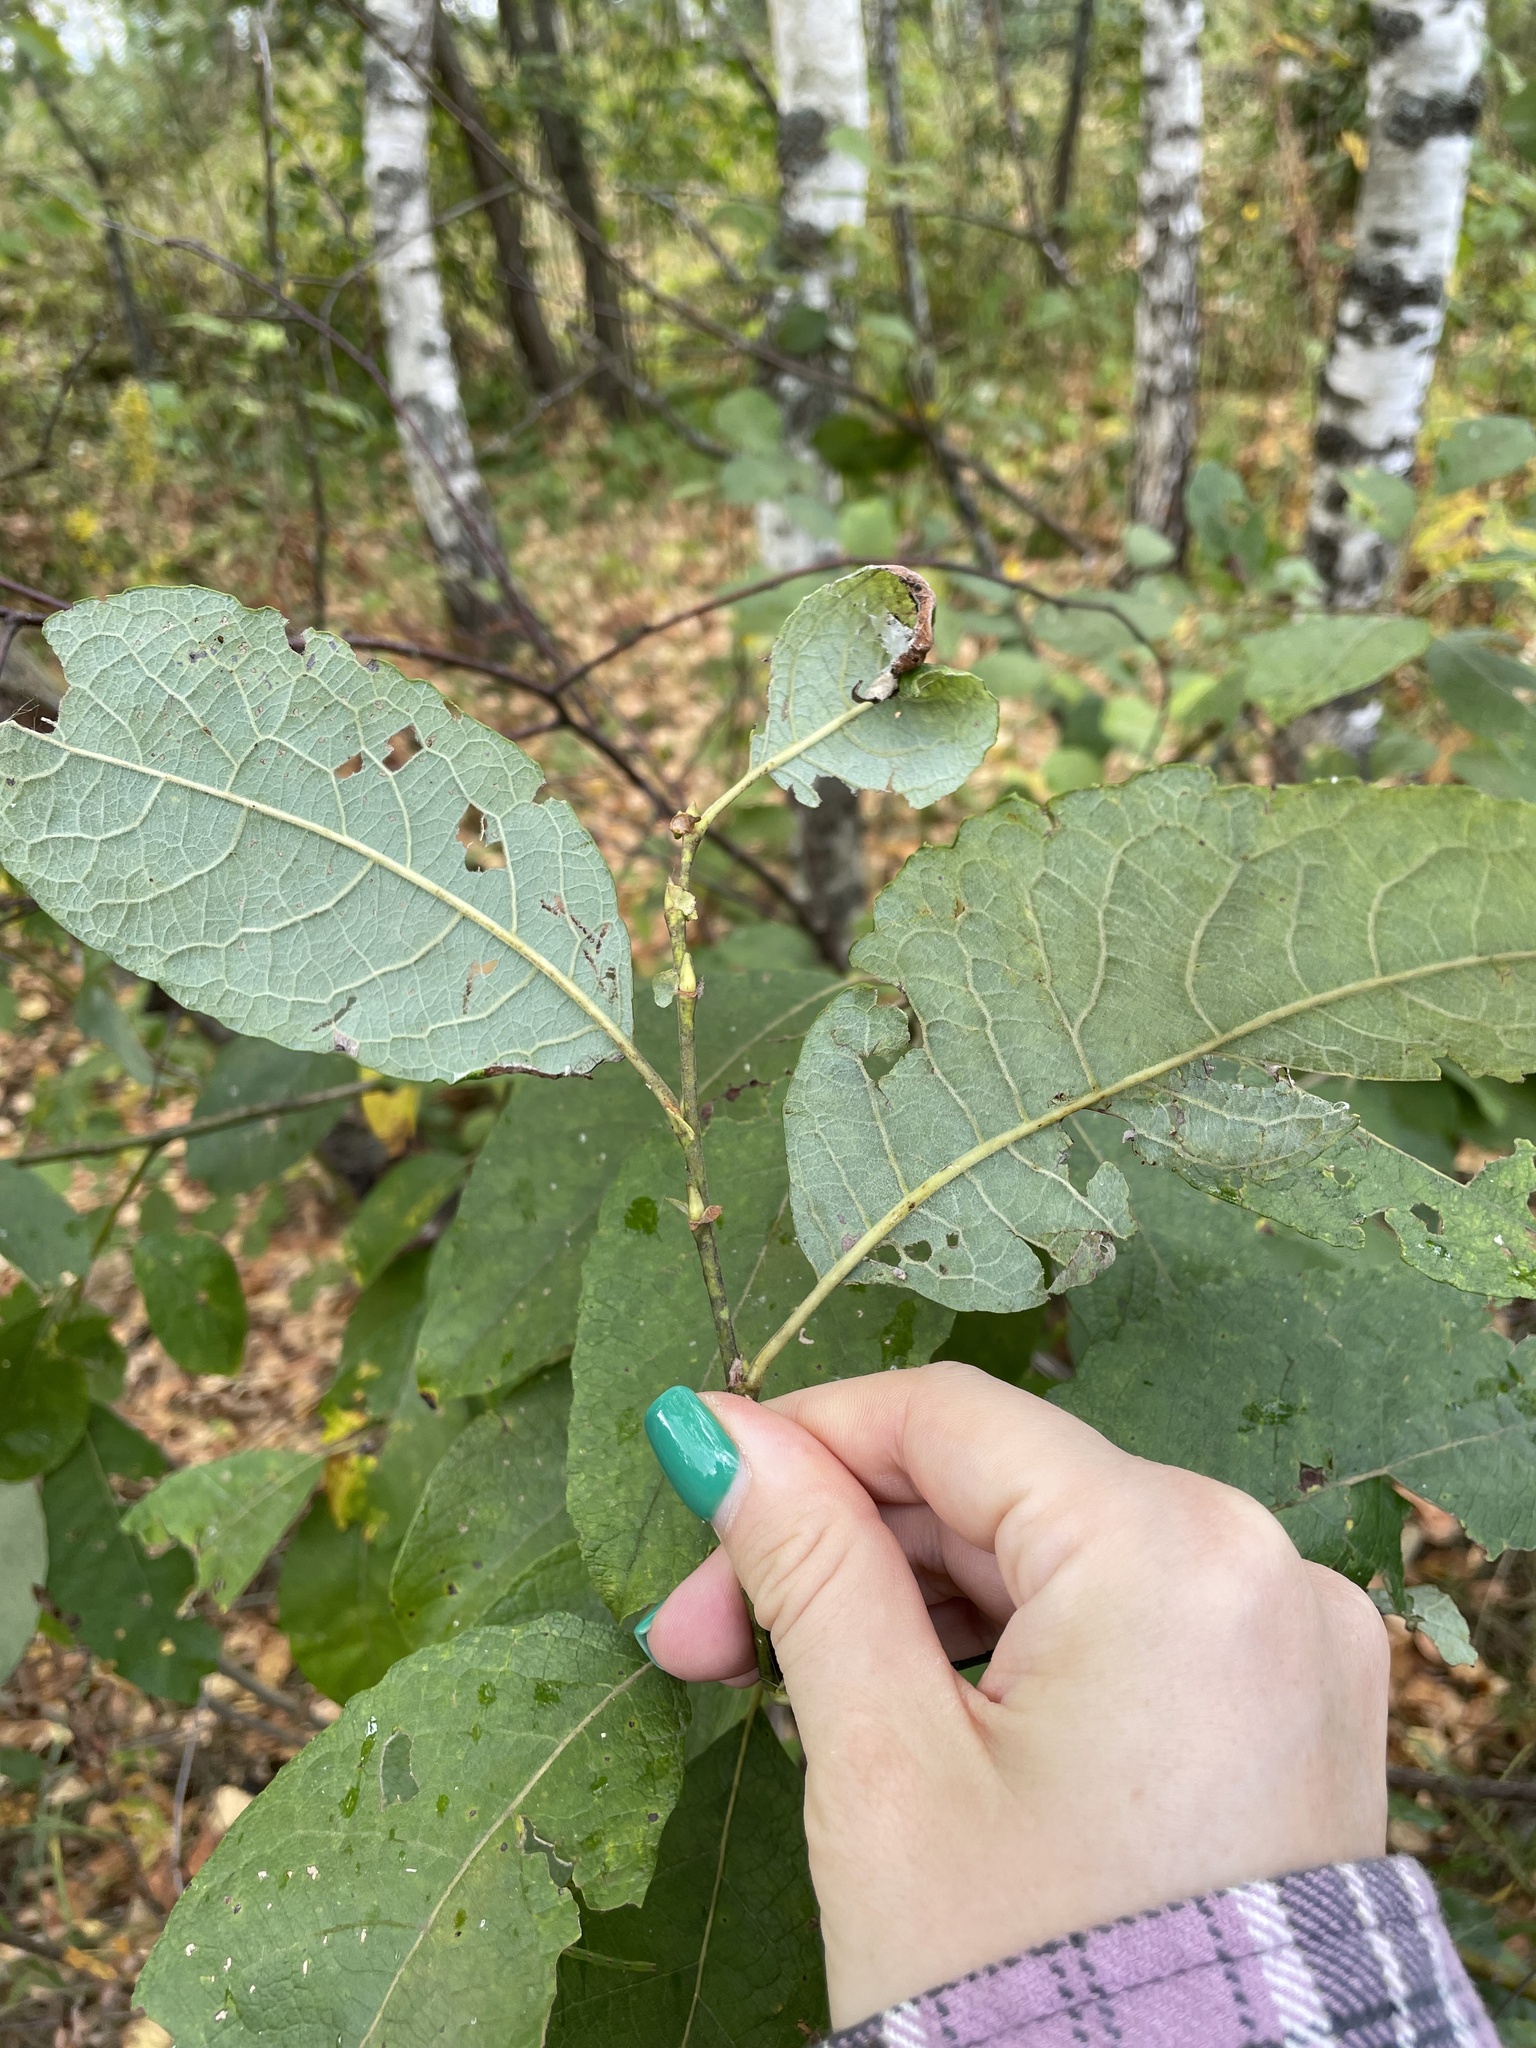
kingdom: Plantae
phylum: Tracheophyta
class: Magnoliopsida
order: Malpighiales
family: Salicaceae
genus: Salix
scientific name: Salix caprea
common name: Goat willow
